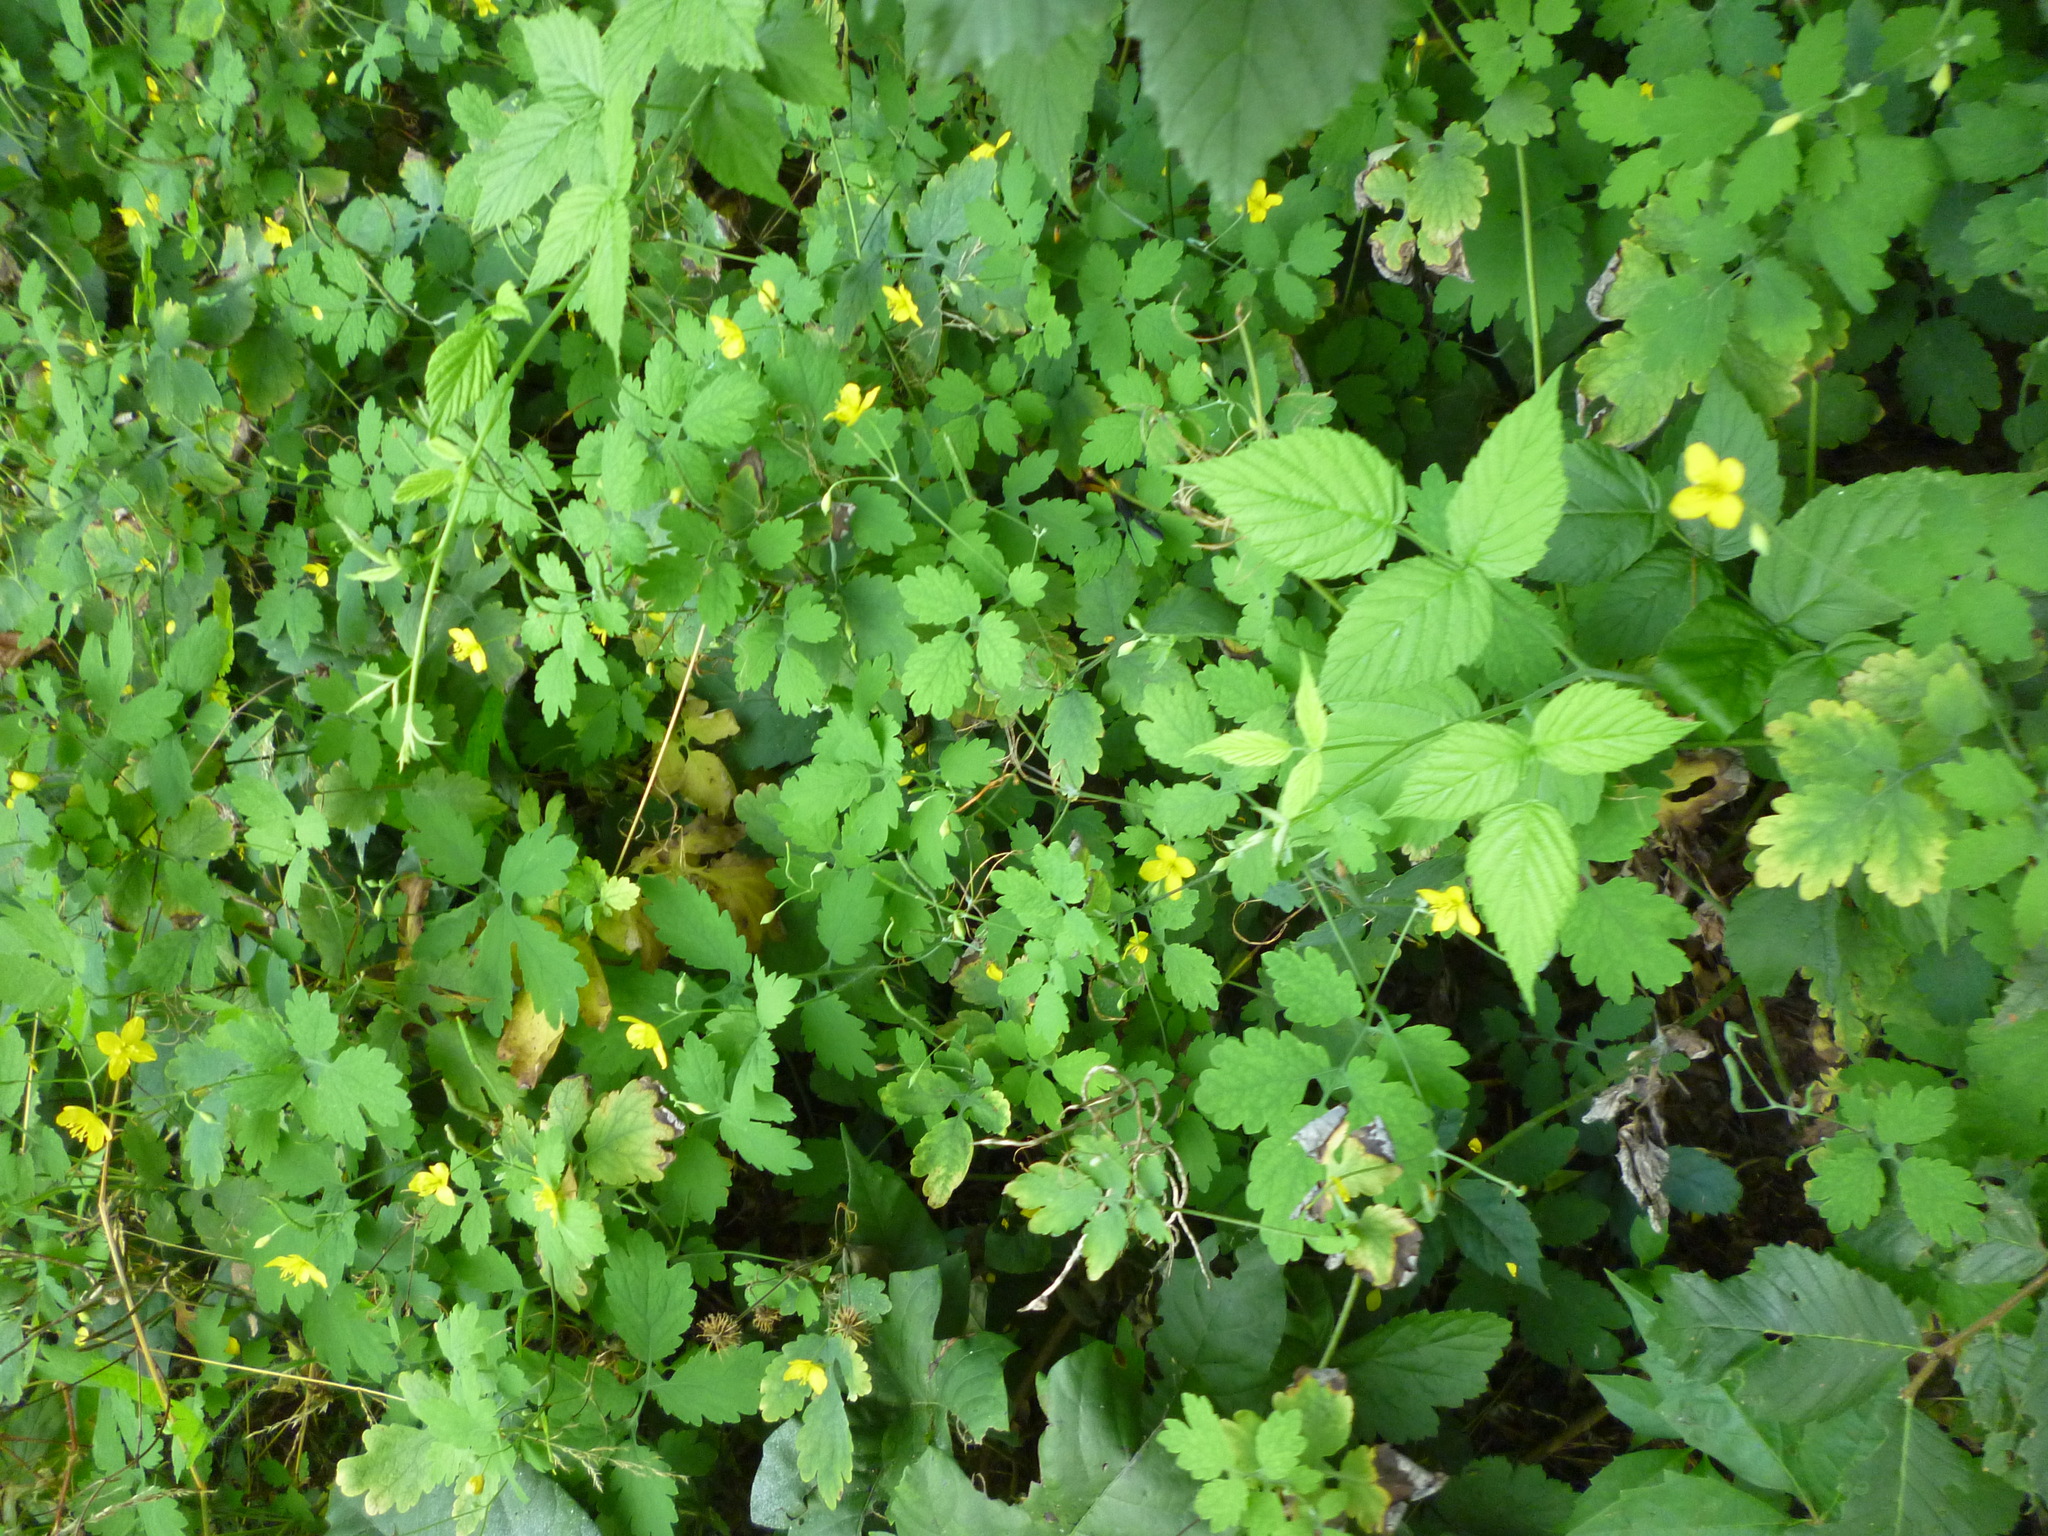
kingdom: Plantae
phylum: Tracheophyta
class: Magnoliopsida
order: Ranunculales
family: Papaveraceae
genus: Chelidonium
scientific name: Chelidonium majus
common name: Greater celandine
